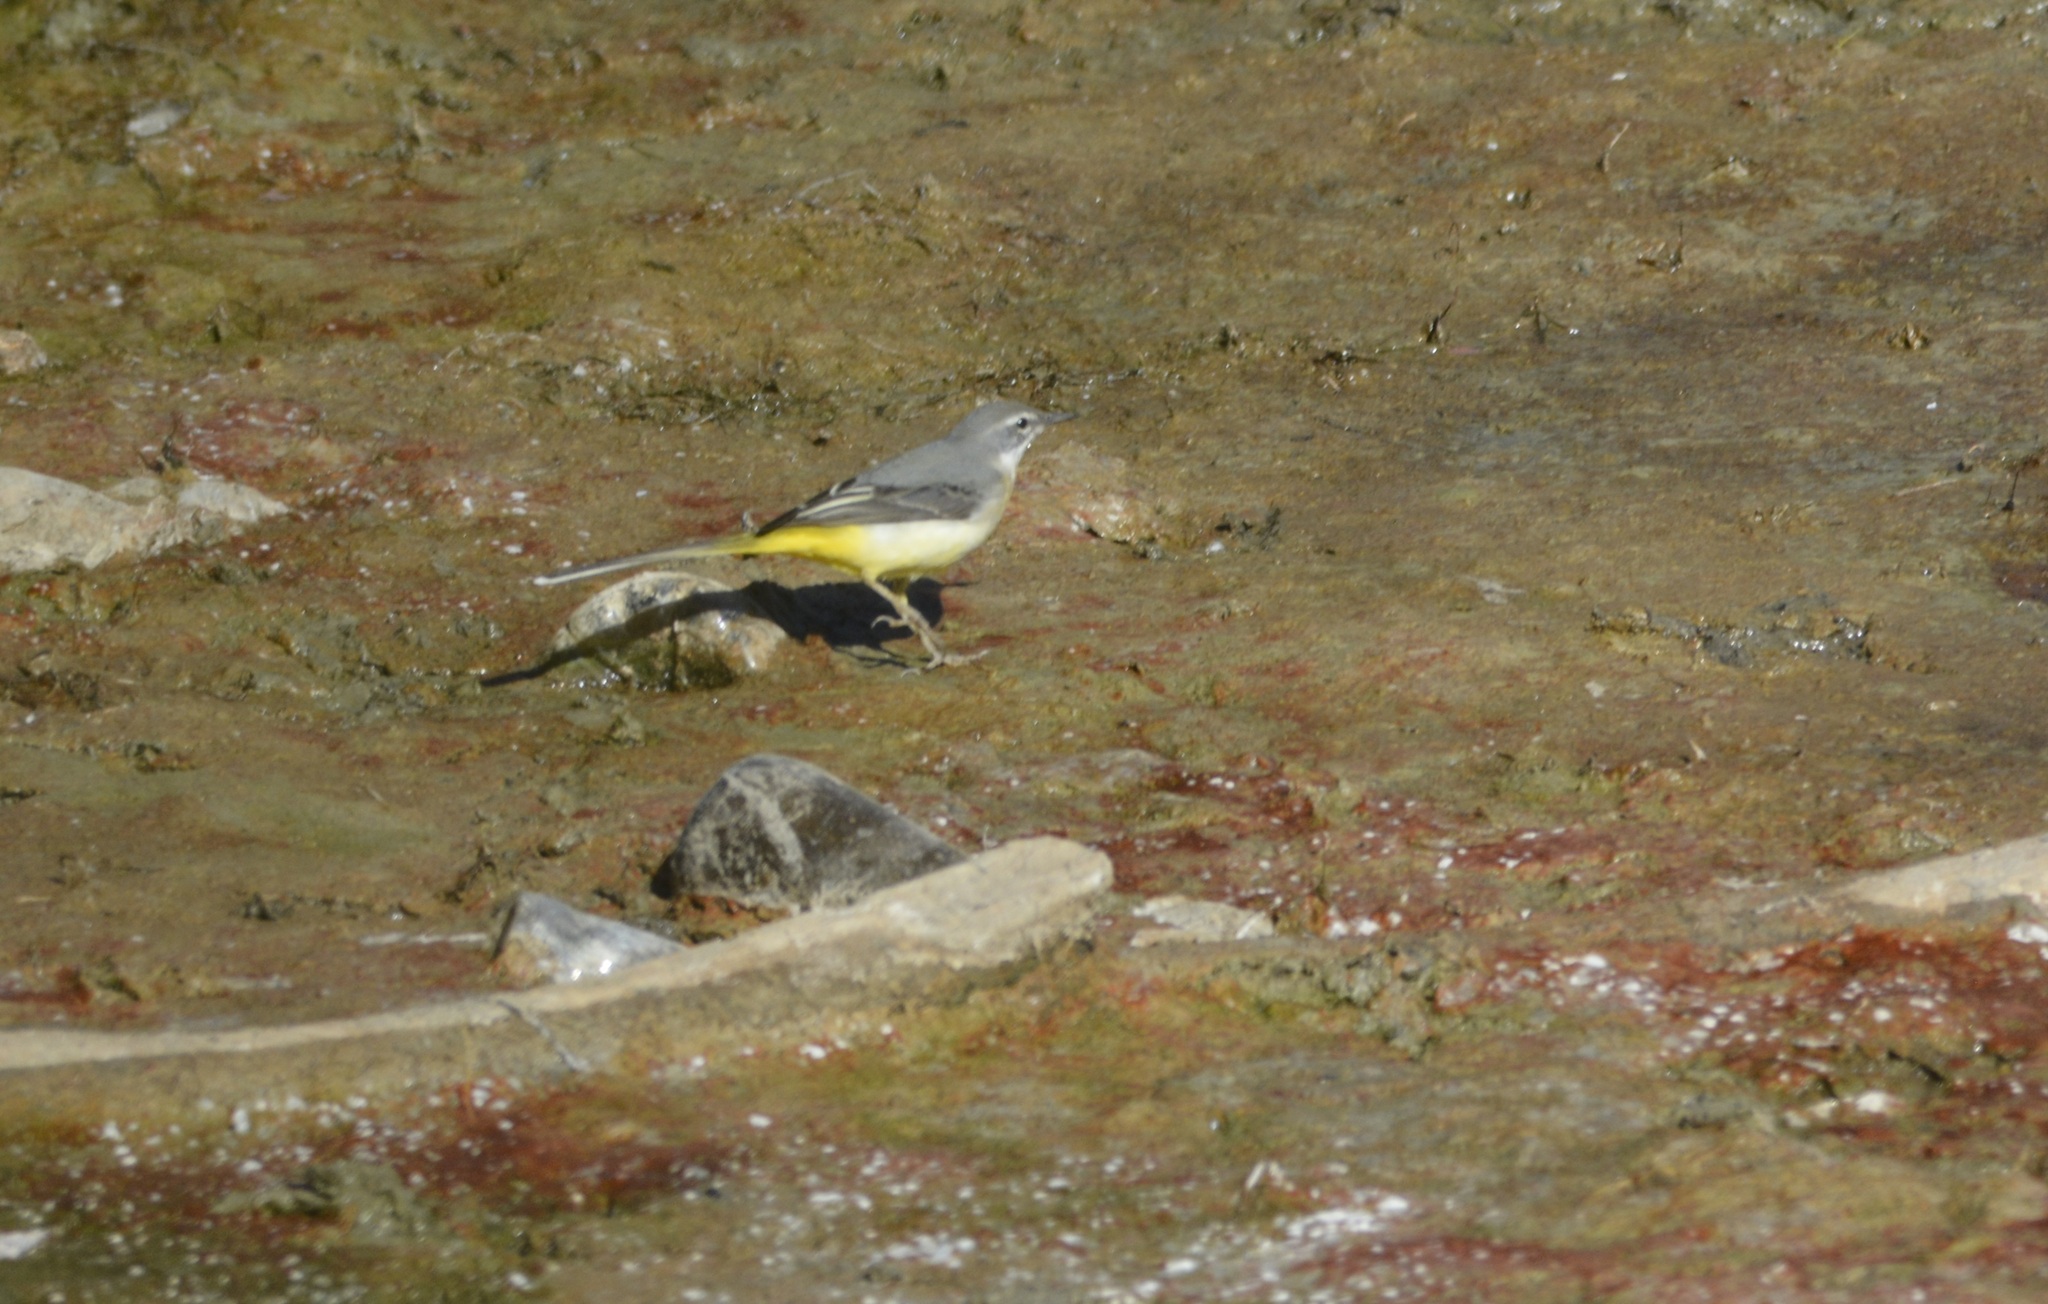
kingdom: Animalia
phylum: Chordata
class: Aves
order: Passeriformes
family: Motacillidae
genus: Motacilla
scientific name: Motacilla cinerea
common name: Grey wagtail
